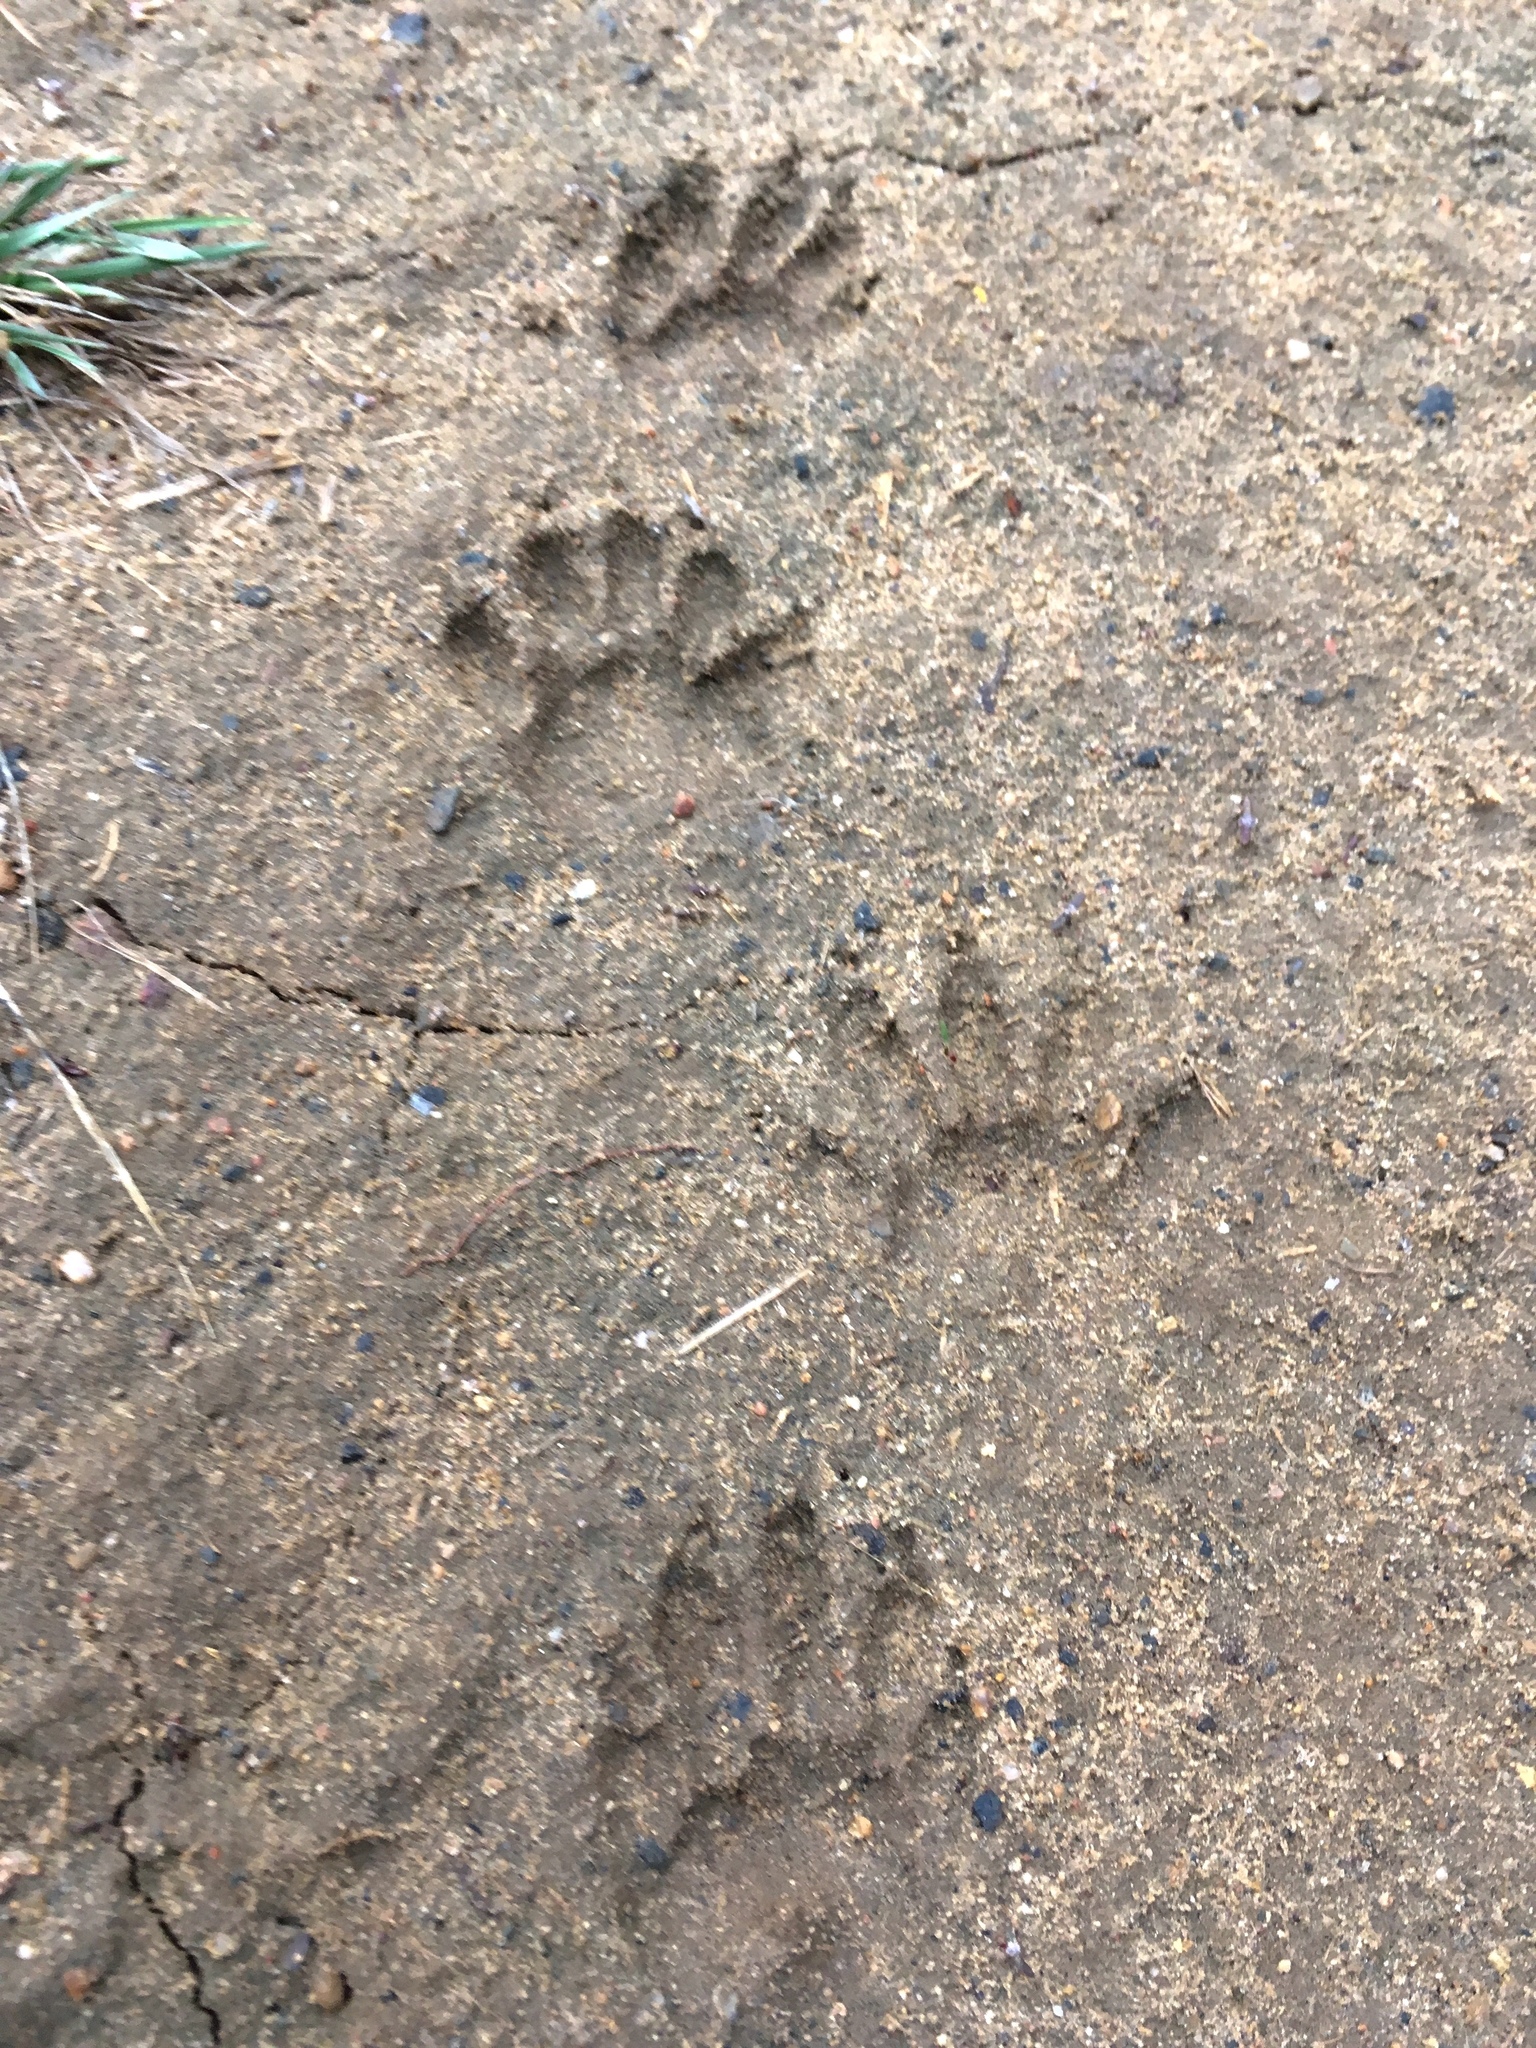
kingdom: Animalia
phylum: Chordata
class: Mammalia
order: Carnivora
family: Procyonidae
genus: Procyon
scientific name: Procyon lotor
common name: Raccoon
